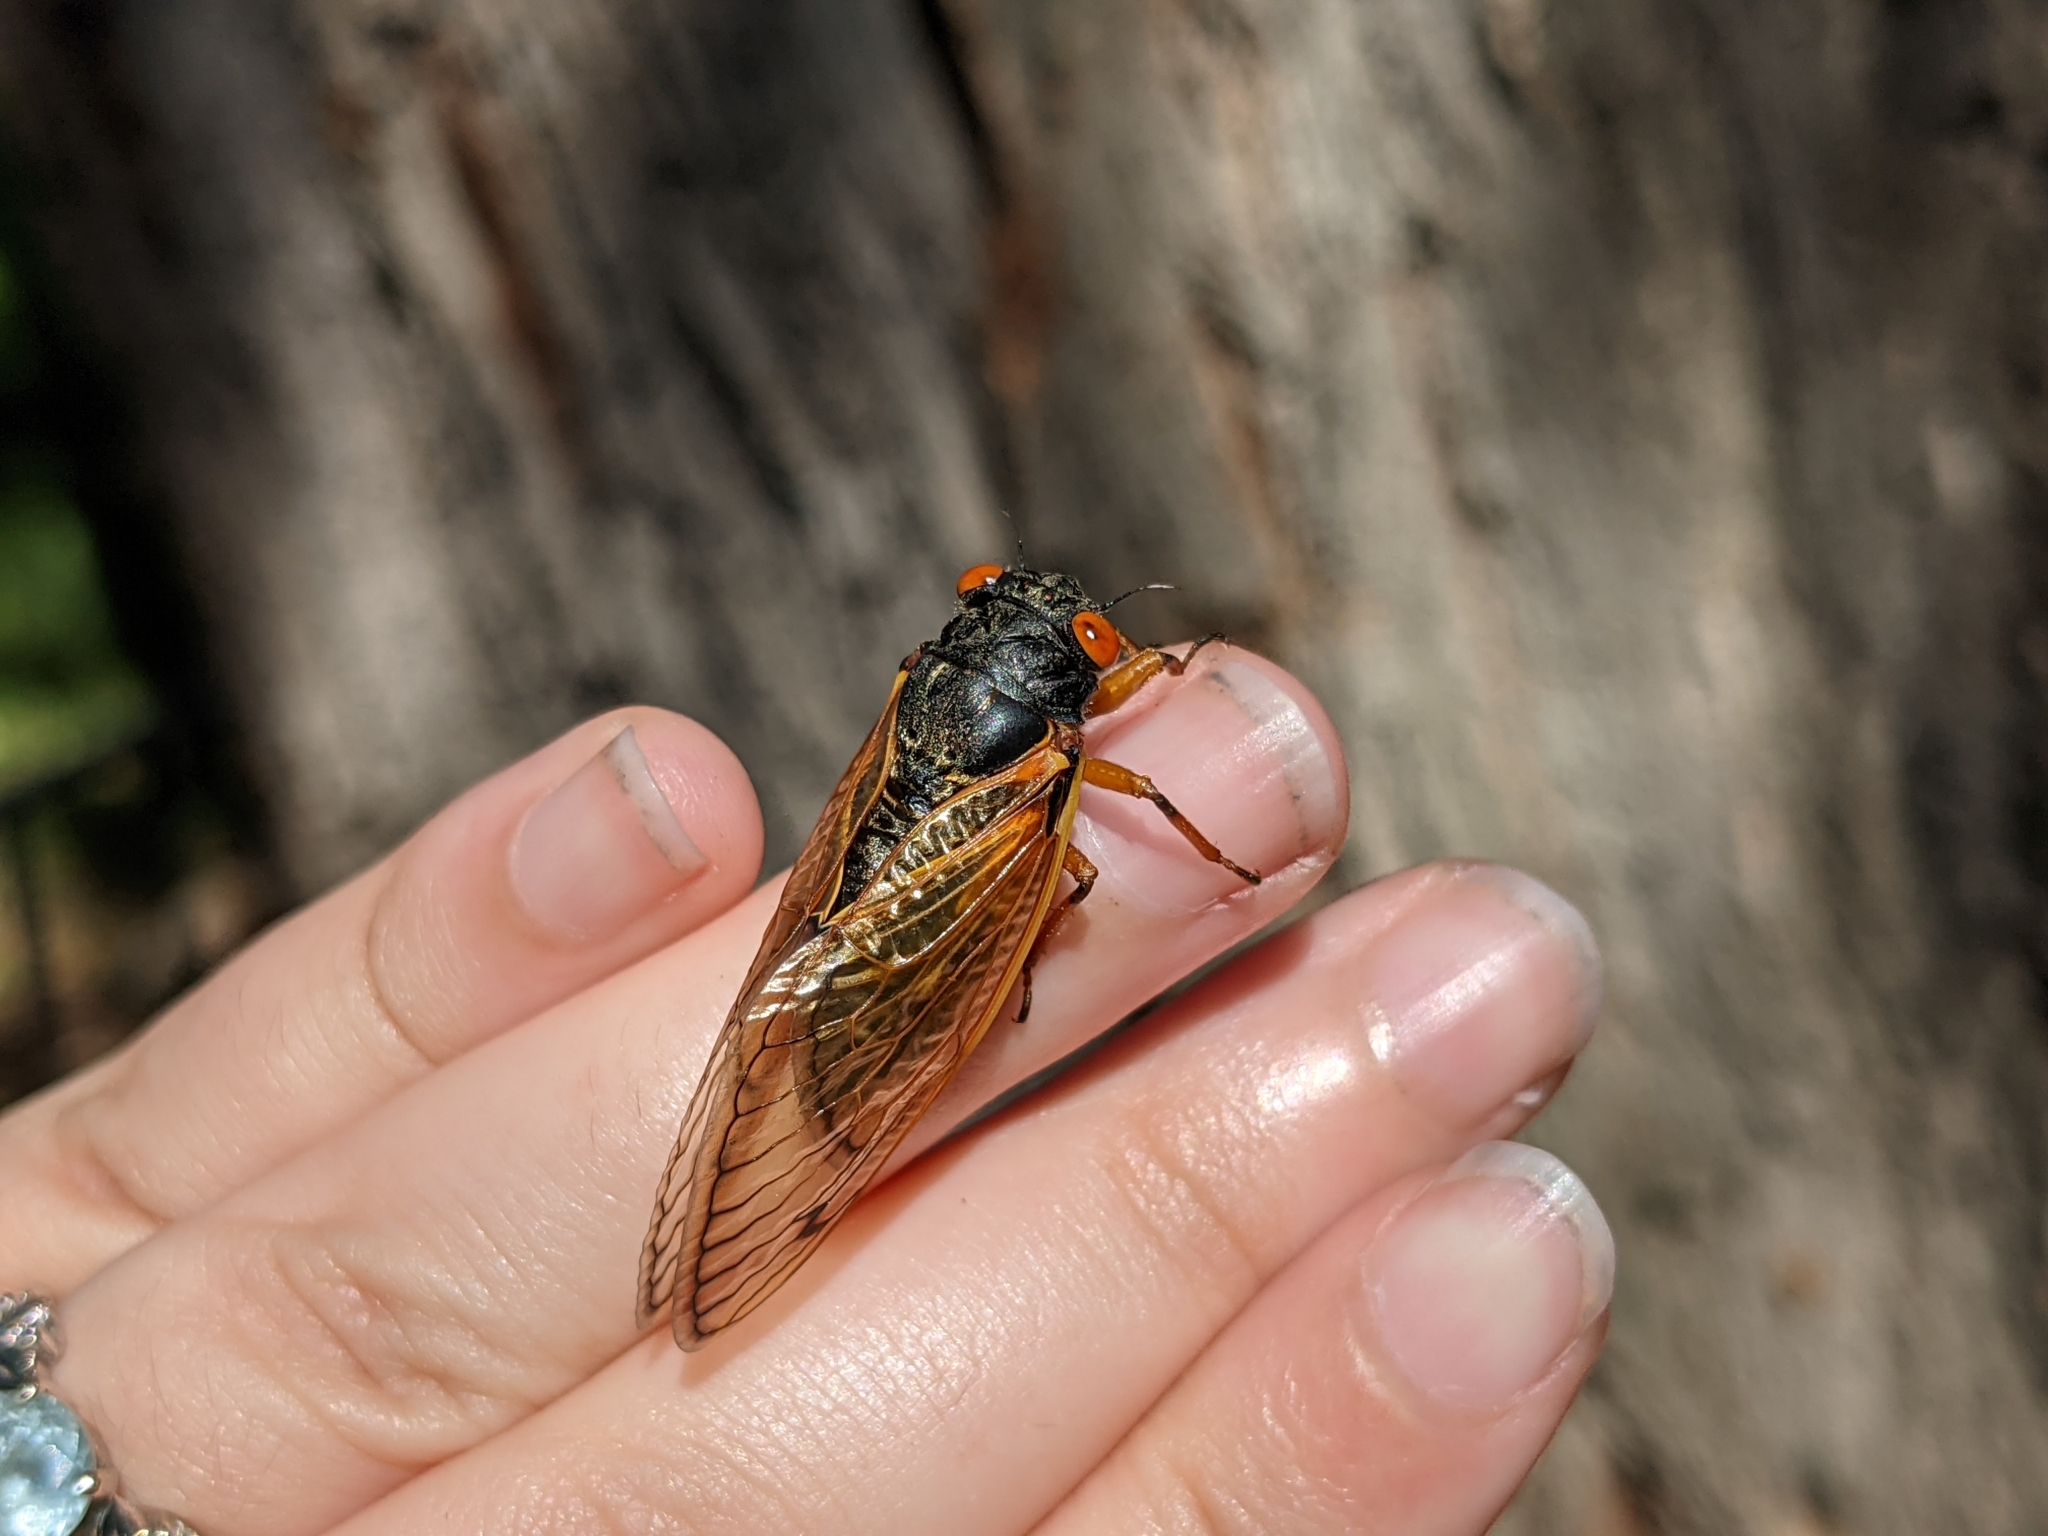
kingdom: Animalia
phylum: Arthropoda
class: Insecta
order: Hemiptera
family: Cicadidae
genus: Magicicada
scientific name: Magicicada cassini
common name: Cassin's 17-year cicada
